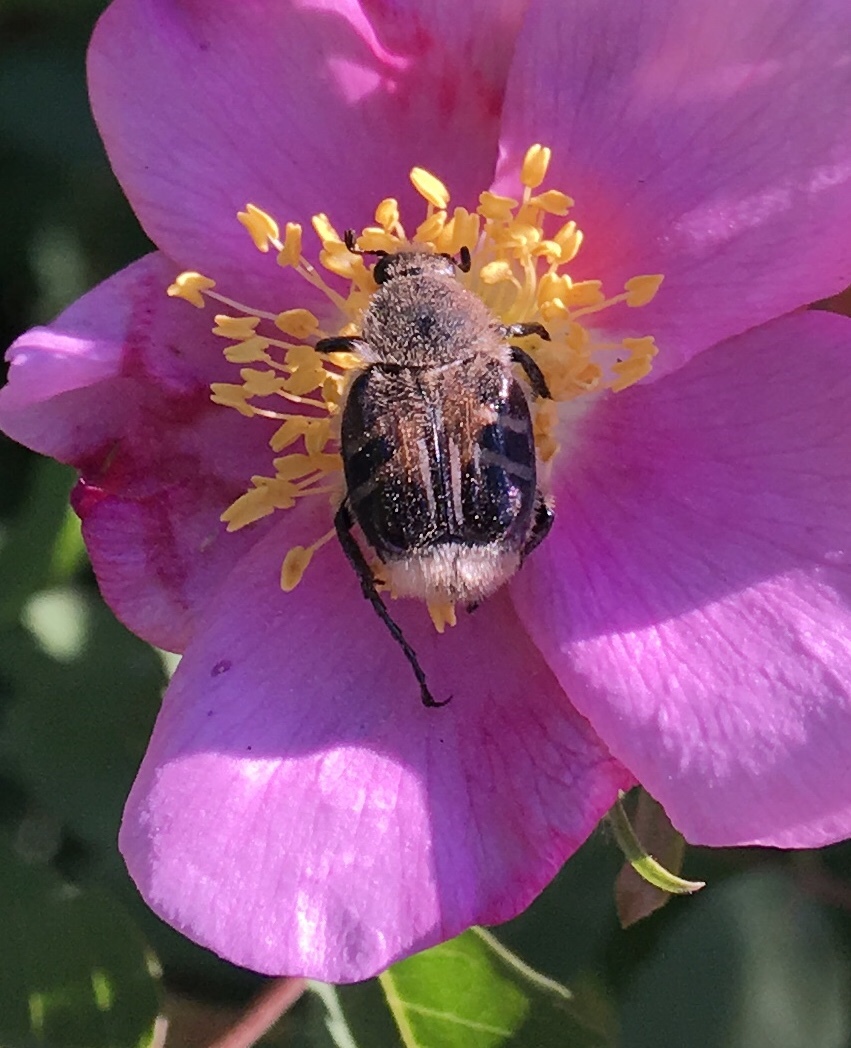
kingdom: Animalia
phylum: Arthropoda
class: Insecta
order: Coleoptera
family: Scarabaeidae
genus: Trichiotinus
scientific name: Trichiotinus assimilis
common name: Bee-mimic beetle
